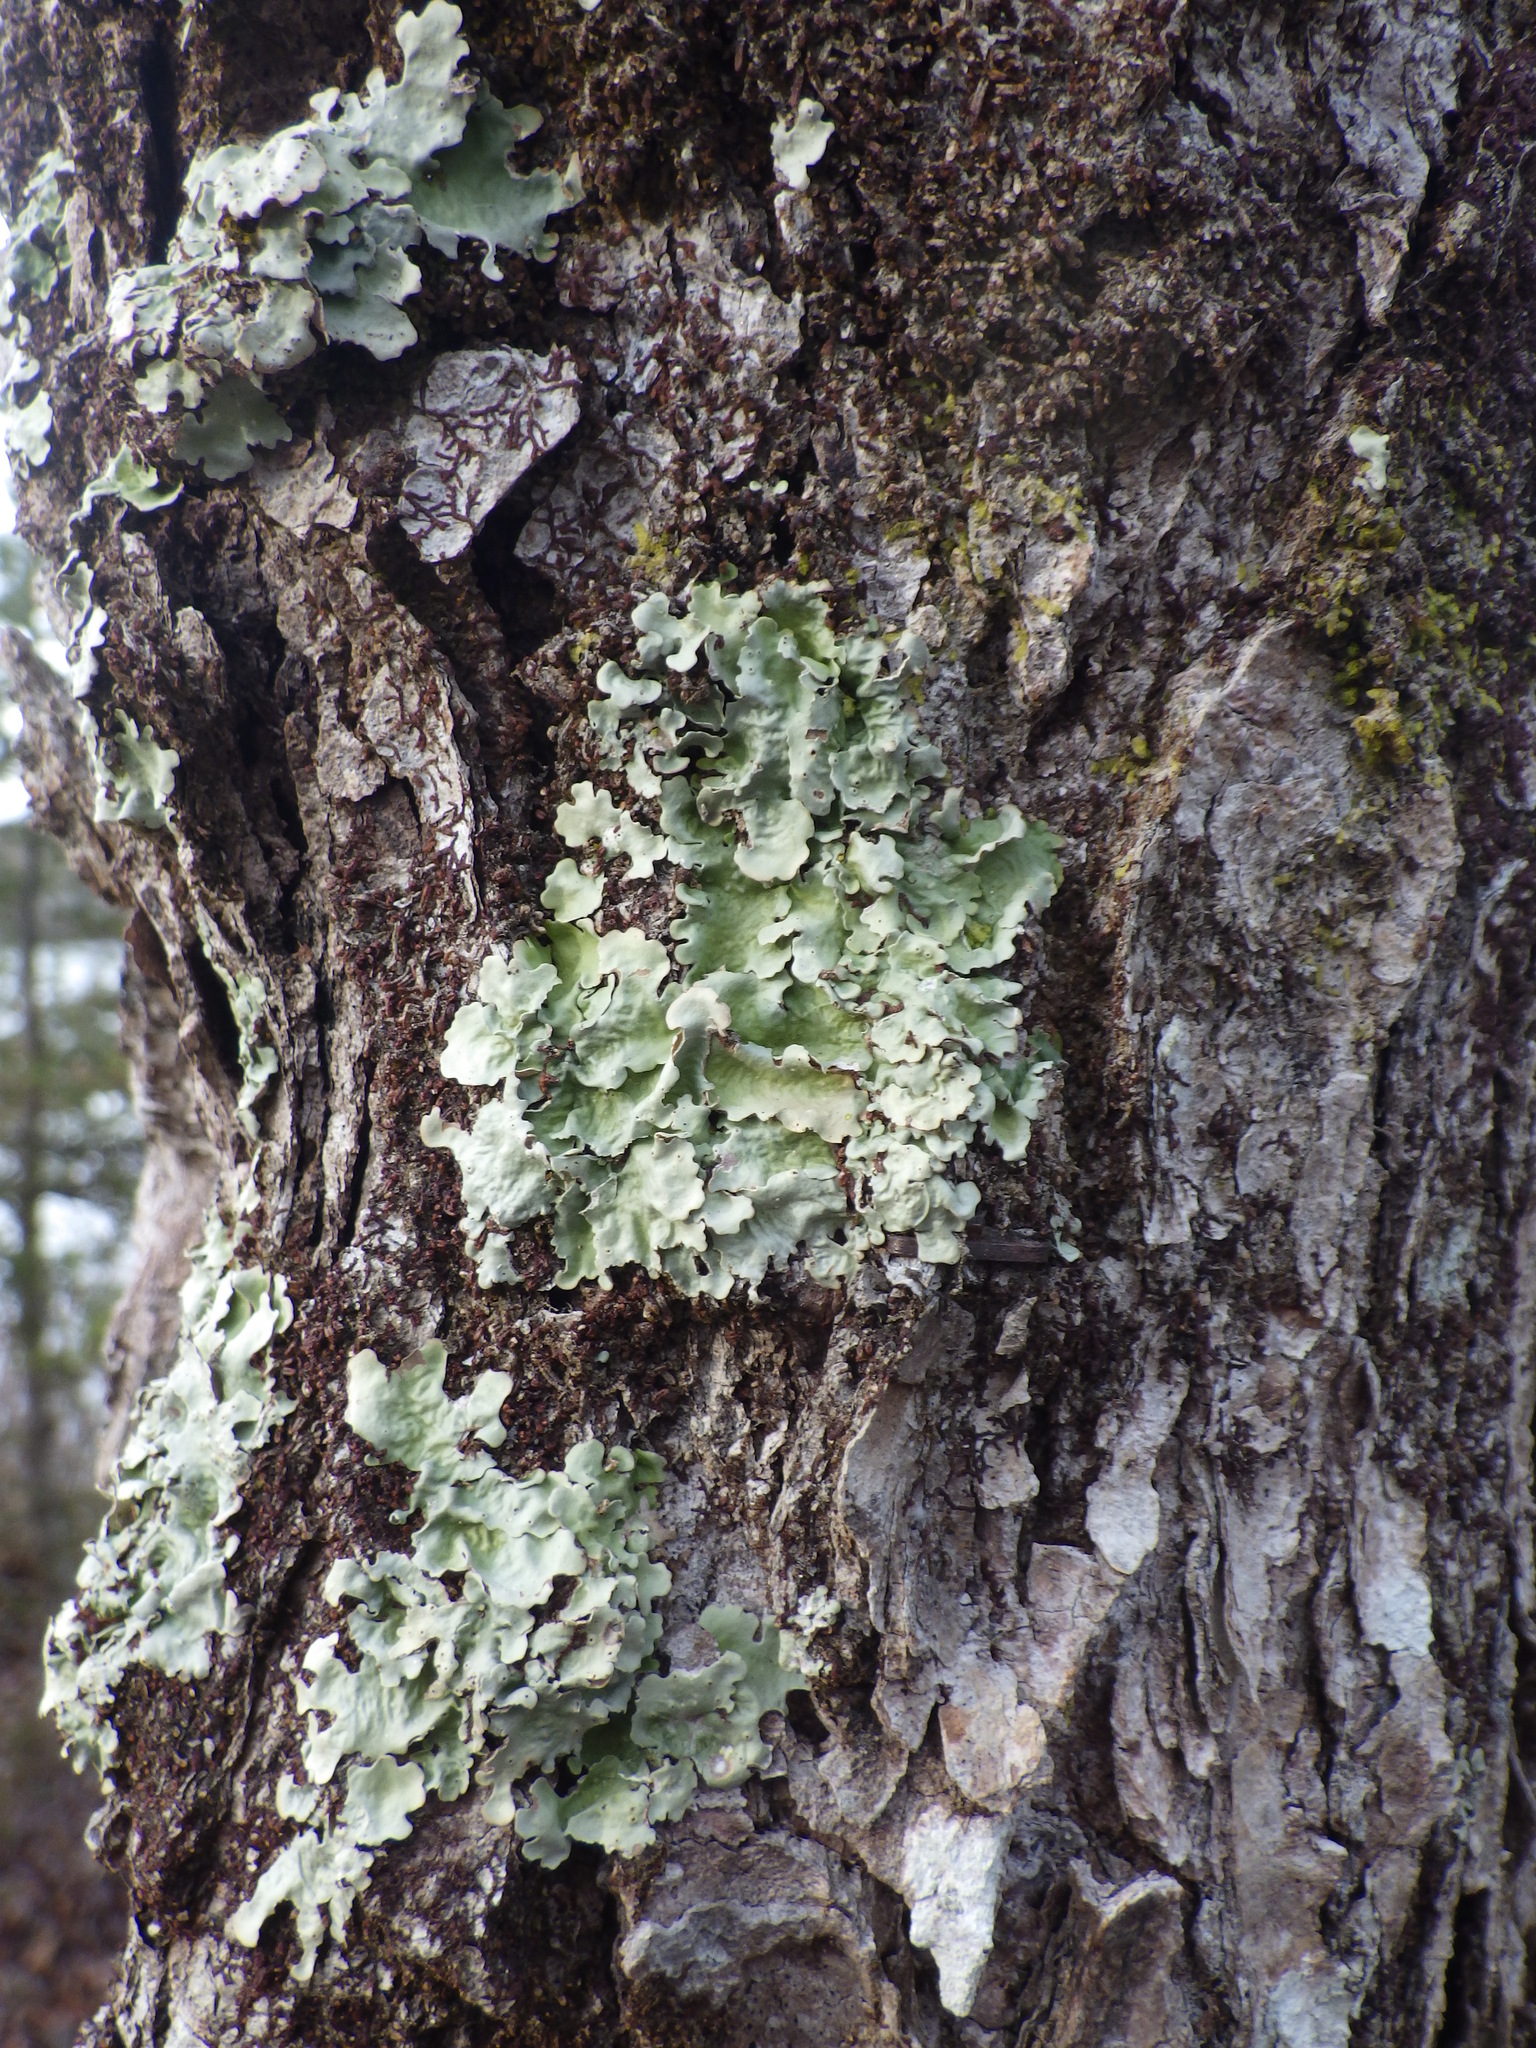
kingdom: Fungi
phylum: Ascomycota
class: Lecanoromycetes
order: Peltigerales
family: Lobariaceae
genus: Ricasolia
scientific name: Ricasolia quercizans
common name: Smooth lungwort
